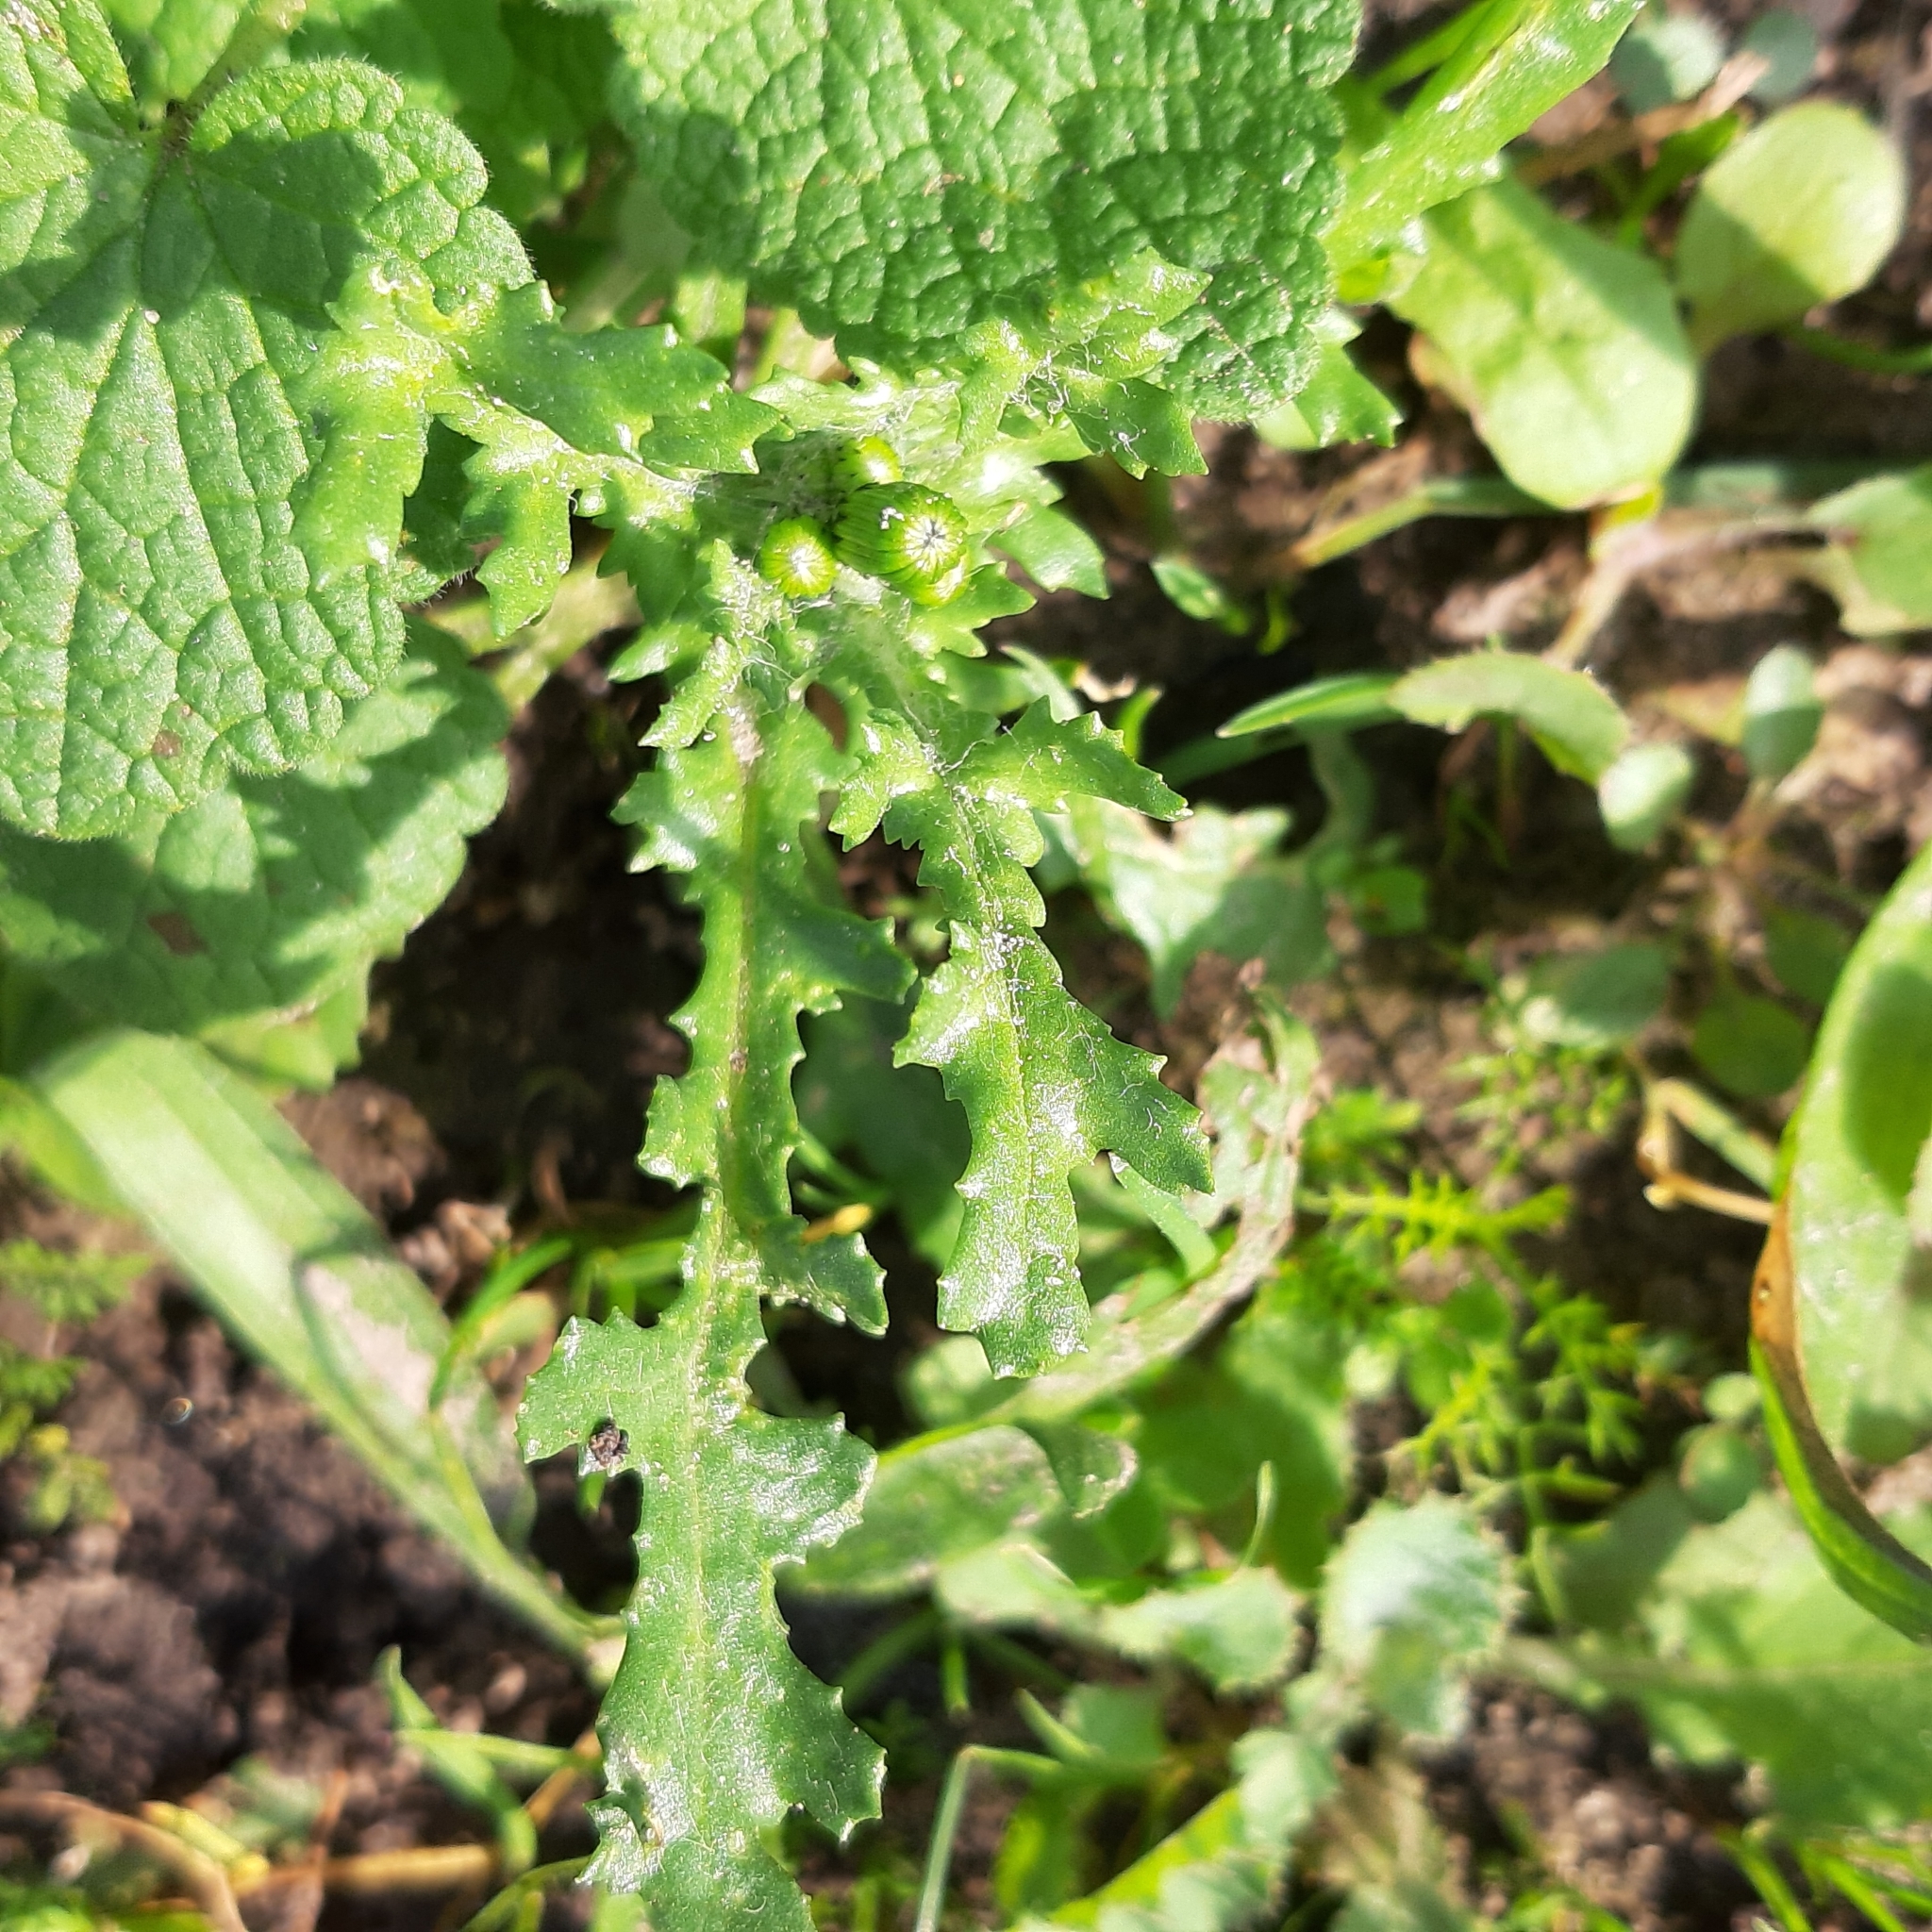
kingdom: Plantae
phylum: Tracheophyta
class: Magnoliopsida
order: Asterales
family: Asteraceae
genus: Senecio
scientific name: Senecio vulgaris
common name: Old-man-in-the-spring
